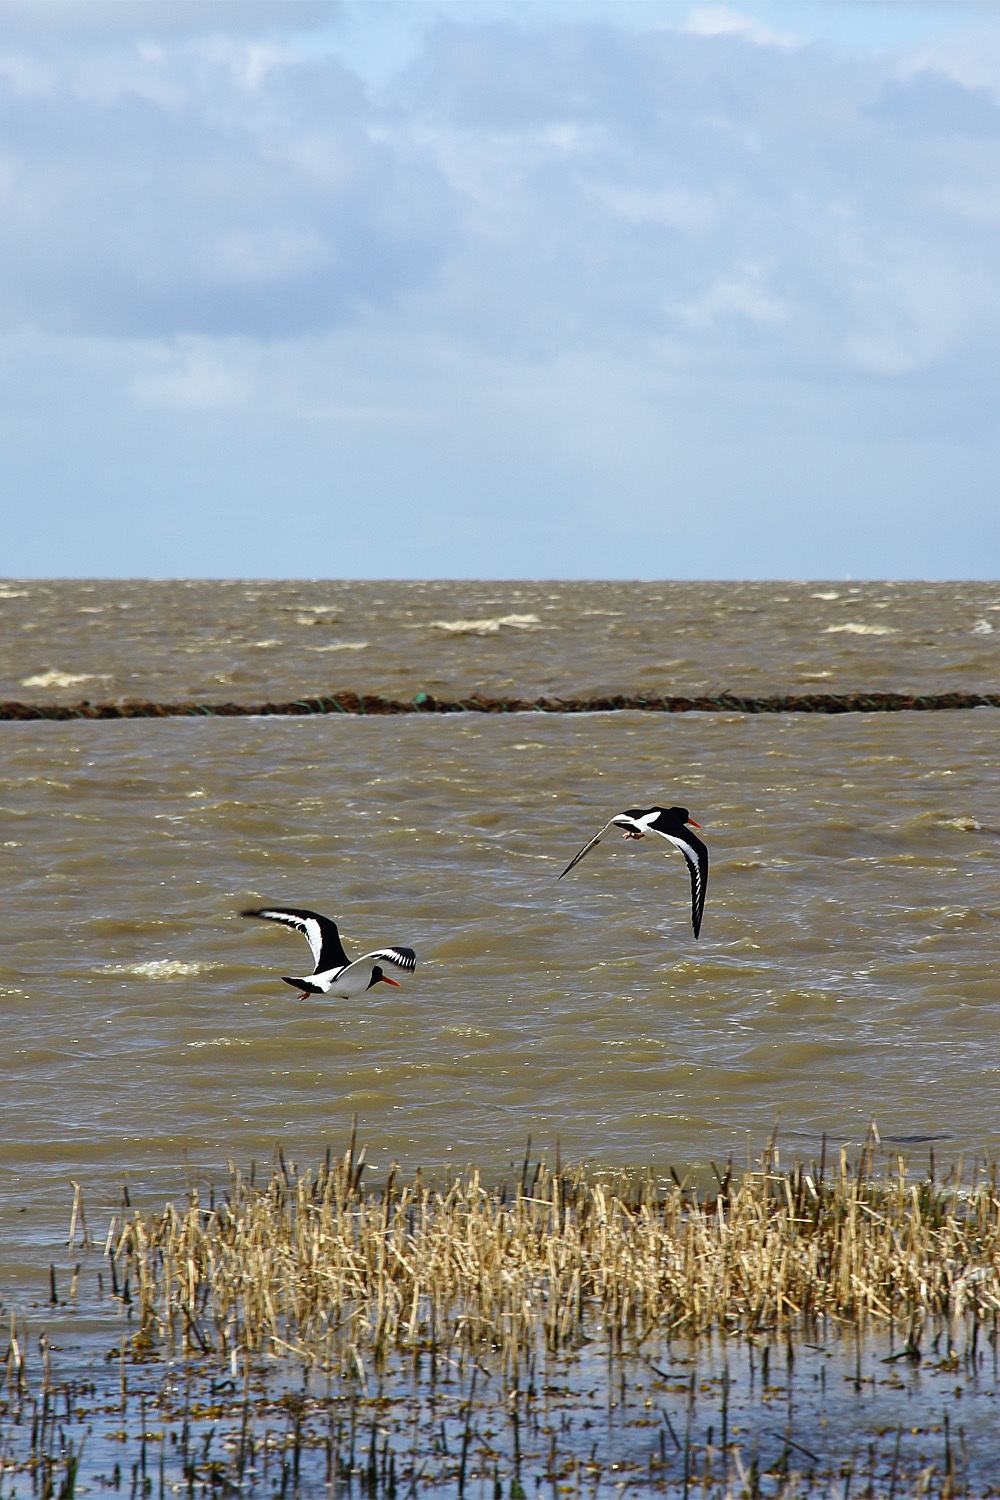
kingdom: Animalia
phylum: Chordata
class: Aves
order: Charadriiformes
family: Haematopodidae
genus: Haematopus
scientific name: Haematopus ostralegus
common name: Eurasian oystercatcher
